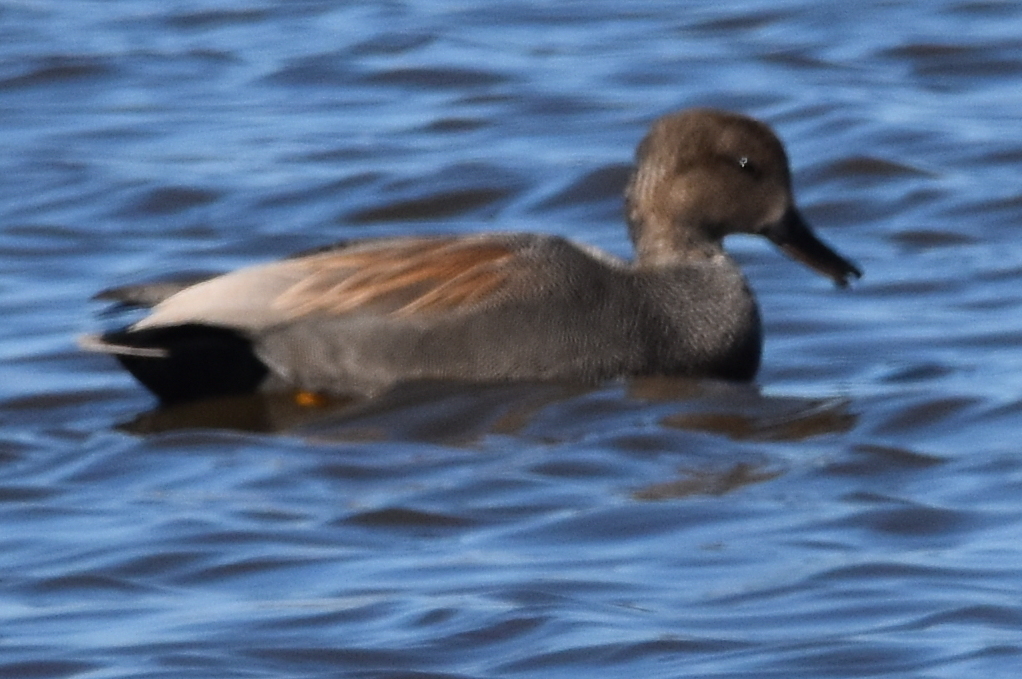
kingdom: Animalia
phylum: Chordata
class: Aves
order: Anseriformes
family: Anatidae
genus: Mareca
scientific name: Mareca strepera
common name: Gadwall
